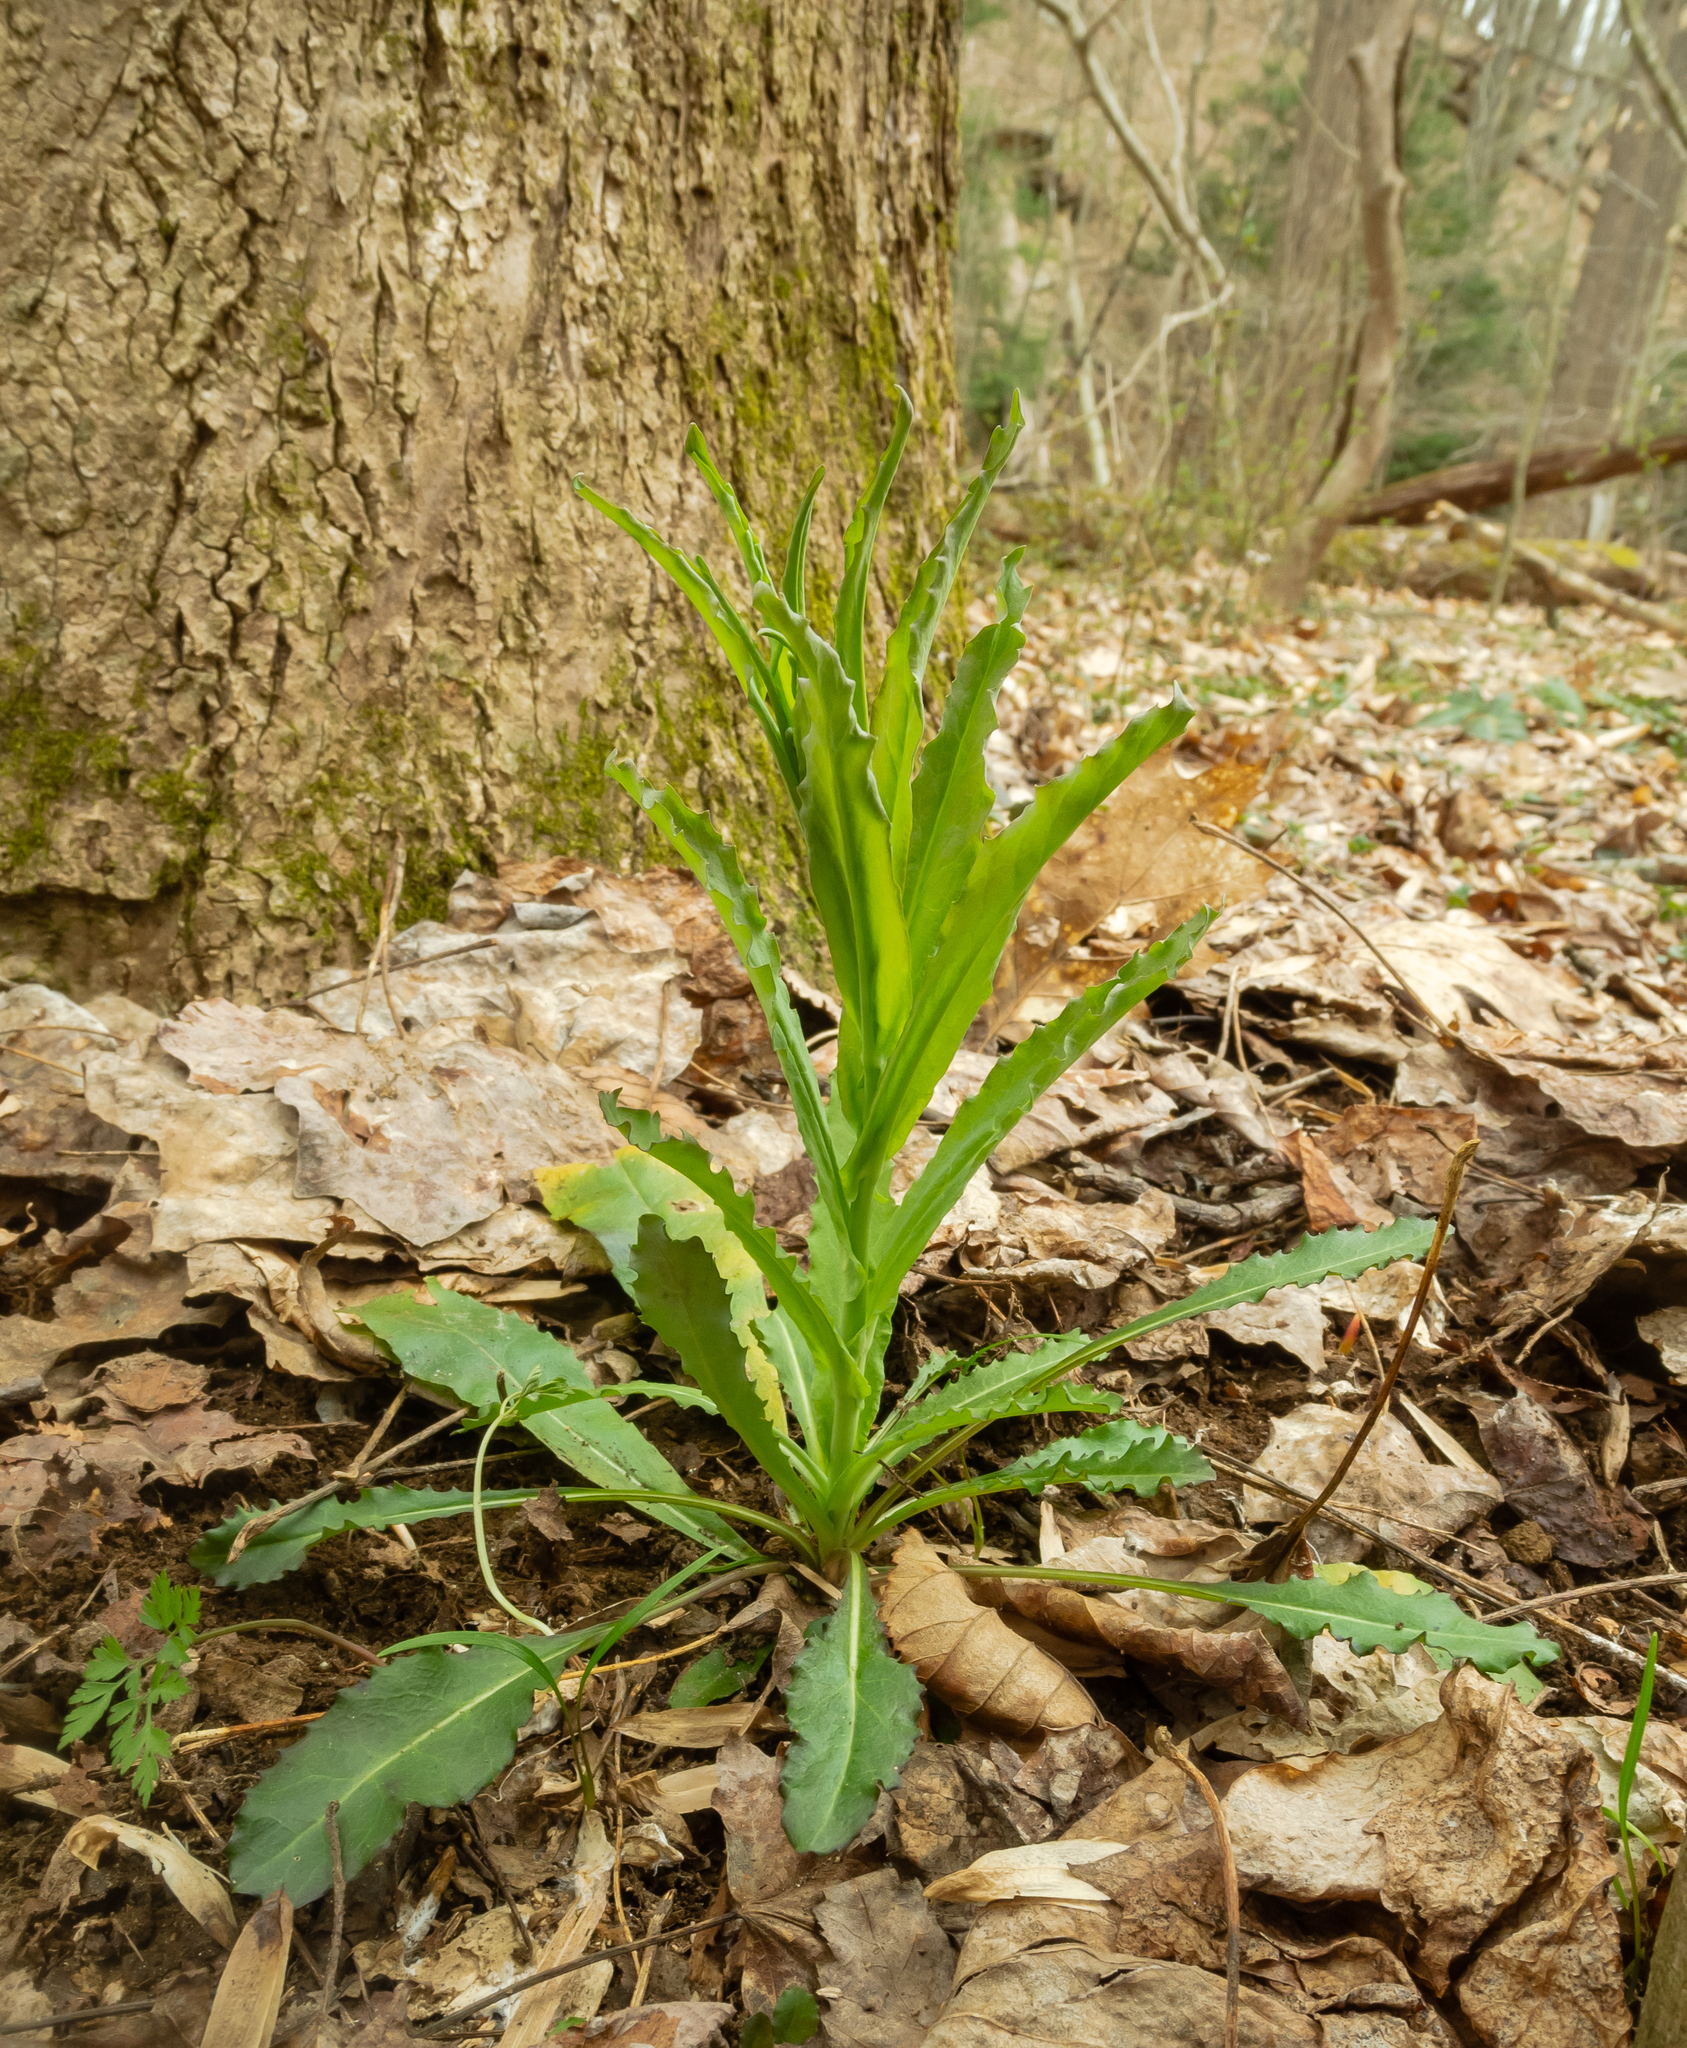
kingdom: Plantae
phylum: Tracheophyta
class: Magnoliopsida
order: Brassicales
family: Brassicaceae
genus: Borodinia
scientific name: Borodinia laevigata
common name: Smooth rockcress
